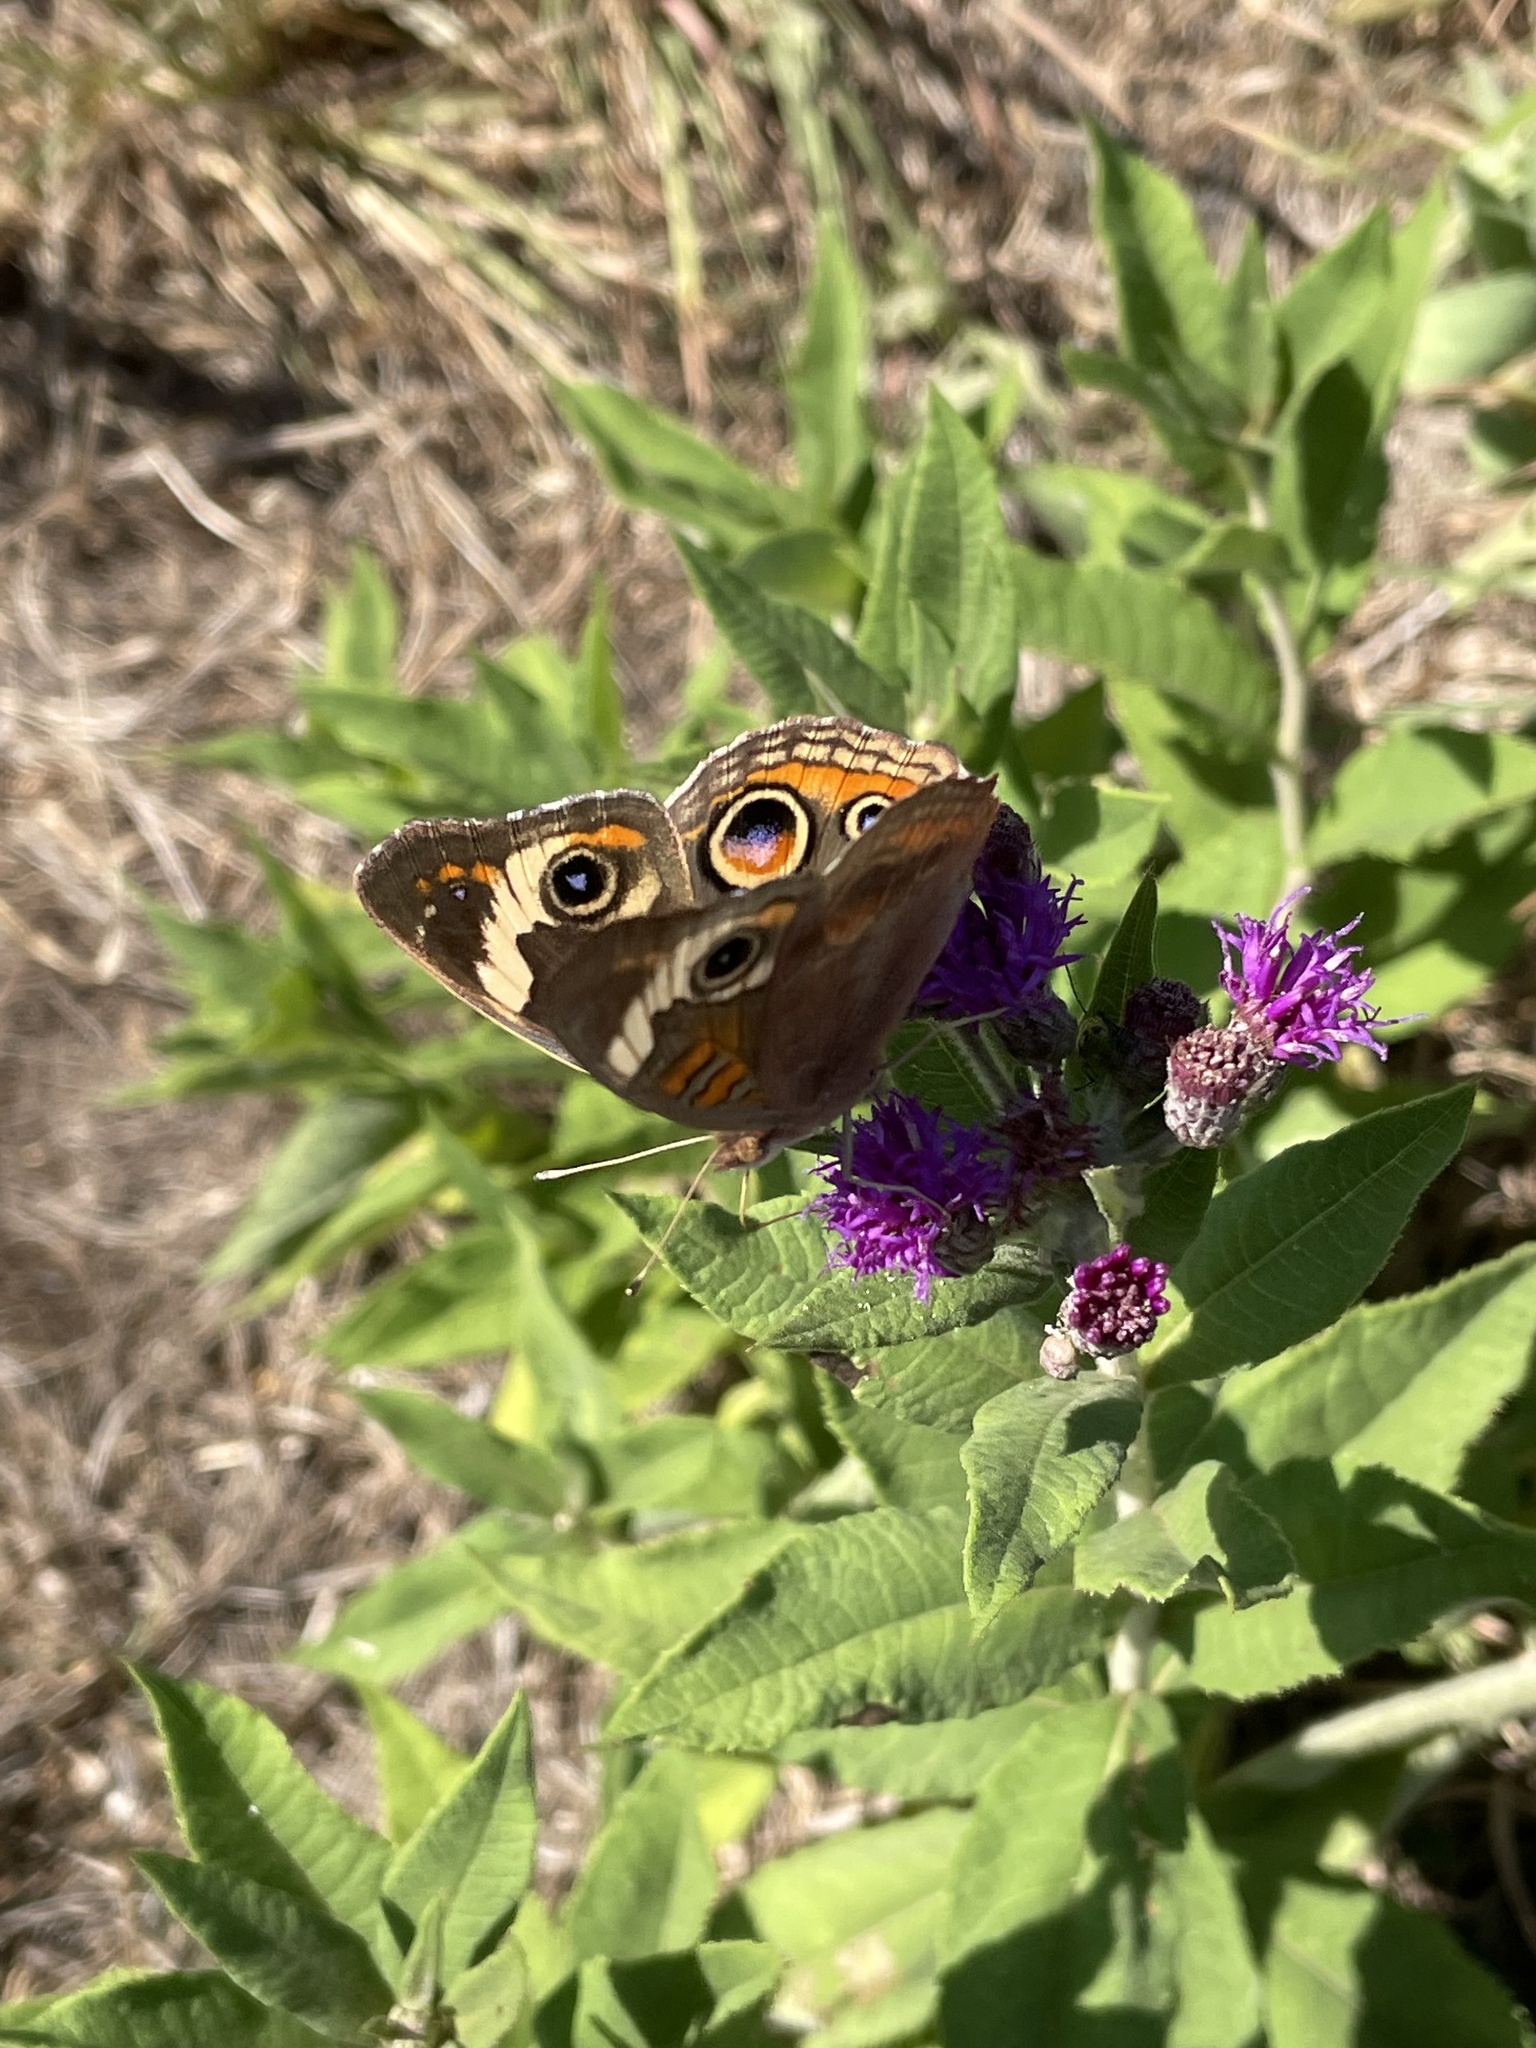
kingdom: Animalia
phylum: Arthropoda
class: Insecta
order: Lepidoptera
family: Nymphalidae
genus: Junonia
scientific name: Junonia coenia
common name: Common buckeye
